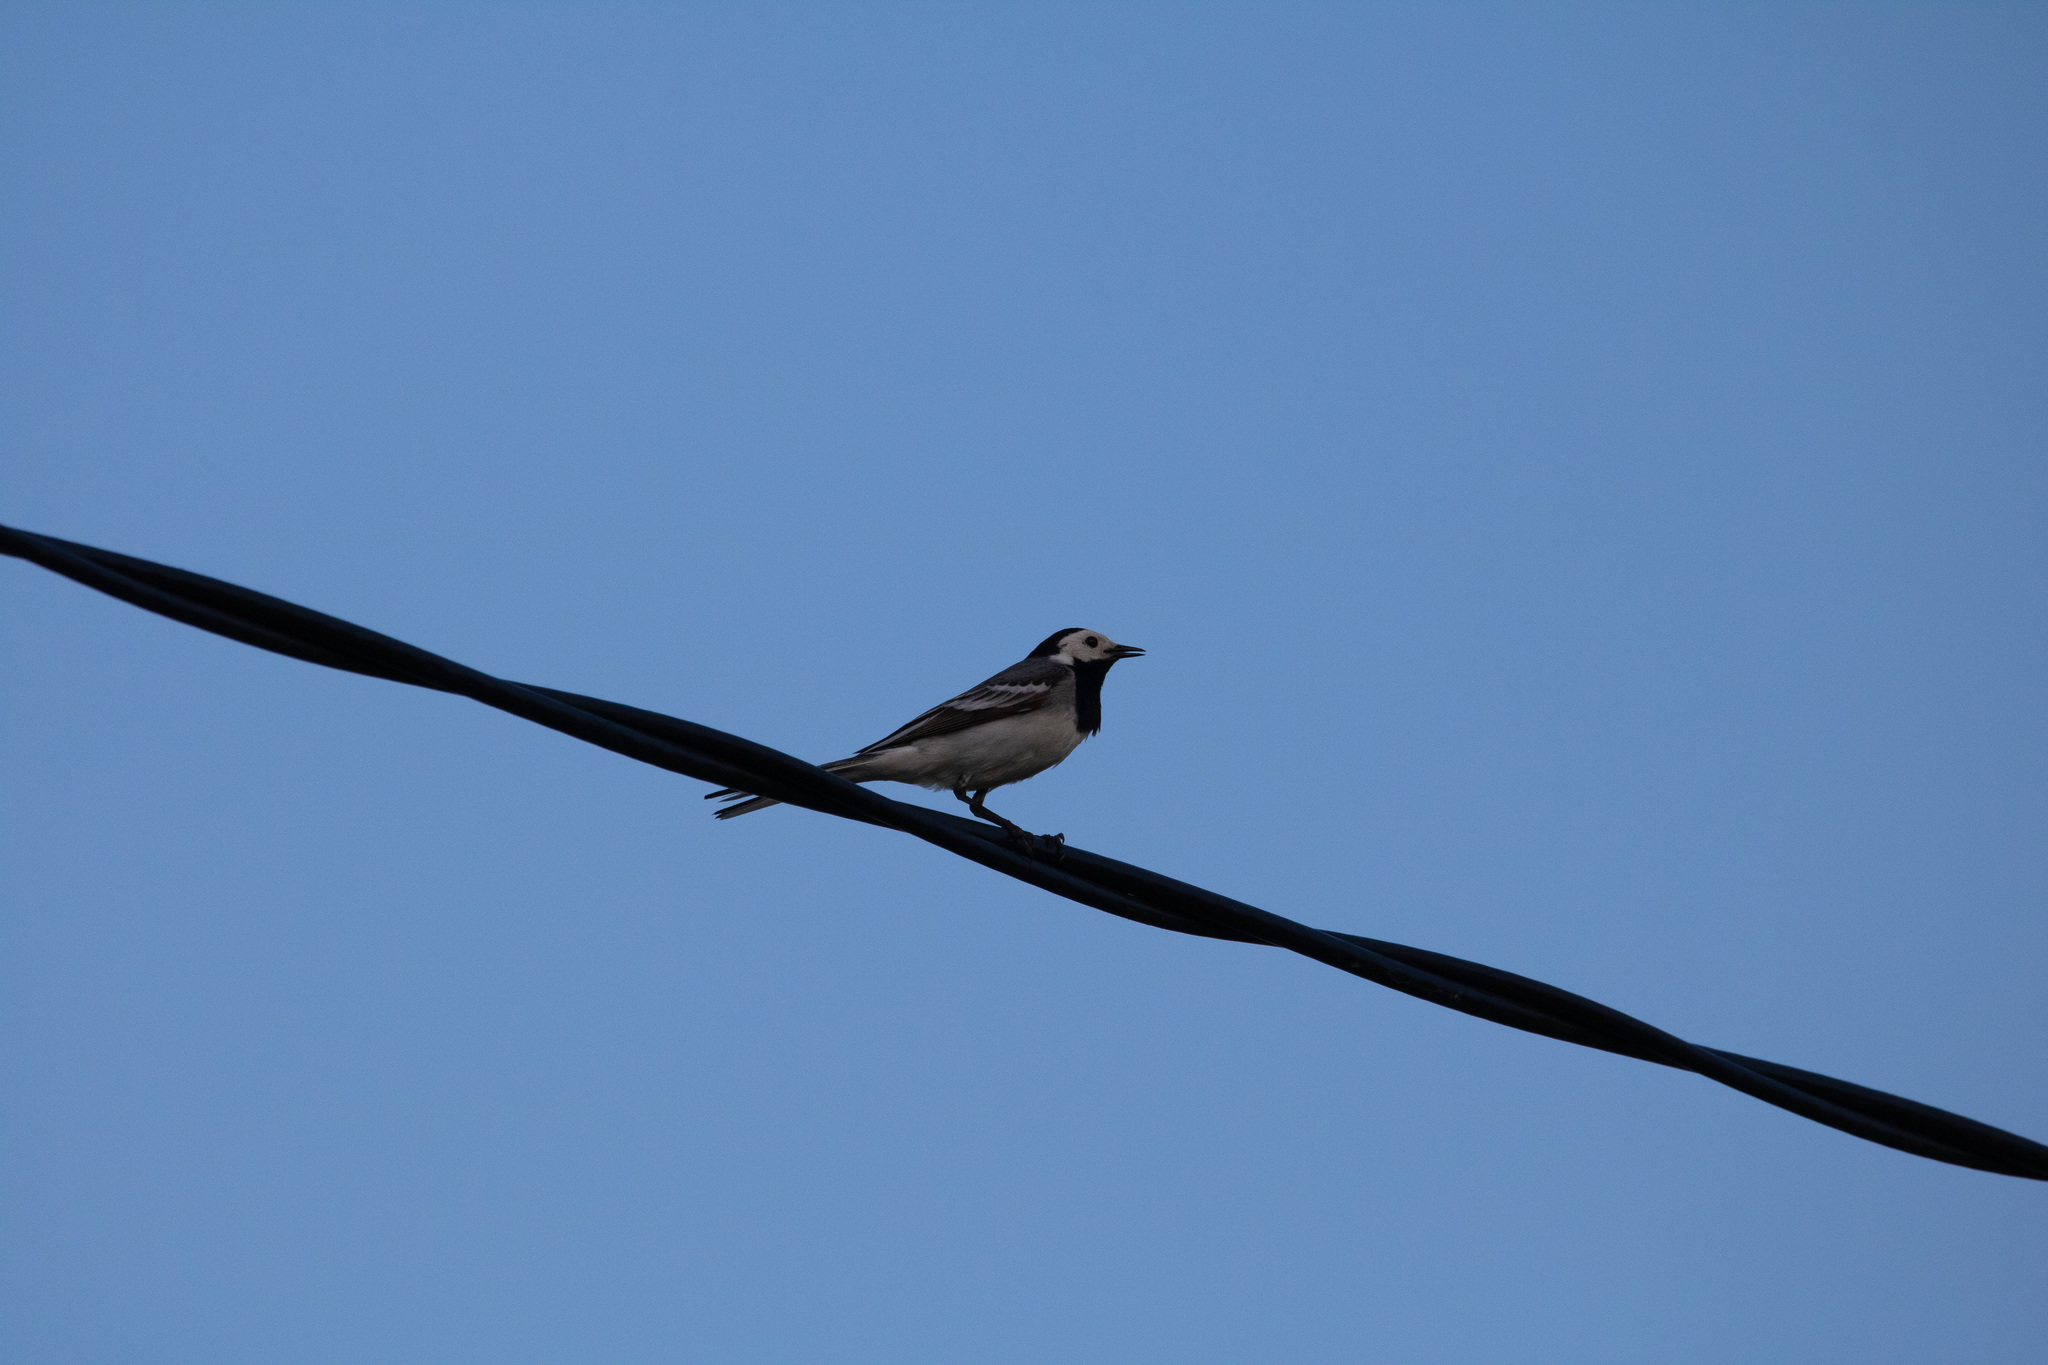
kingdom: Animalia
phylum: Chordata
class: Aves
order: Passeriformes
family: Motacillidae
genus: Motacilla
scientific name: Motacilla alba
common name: White wagtail
